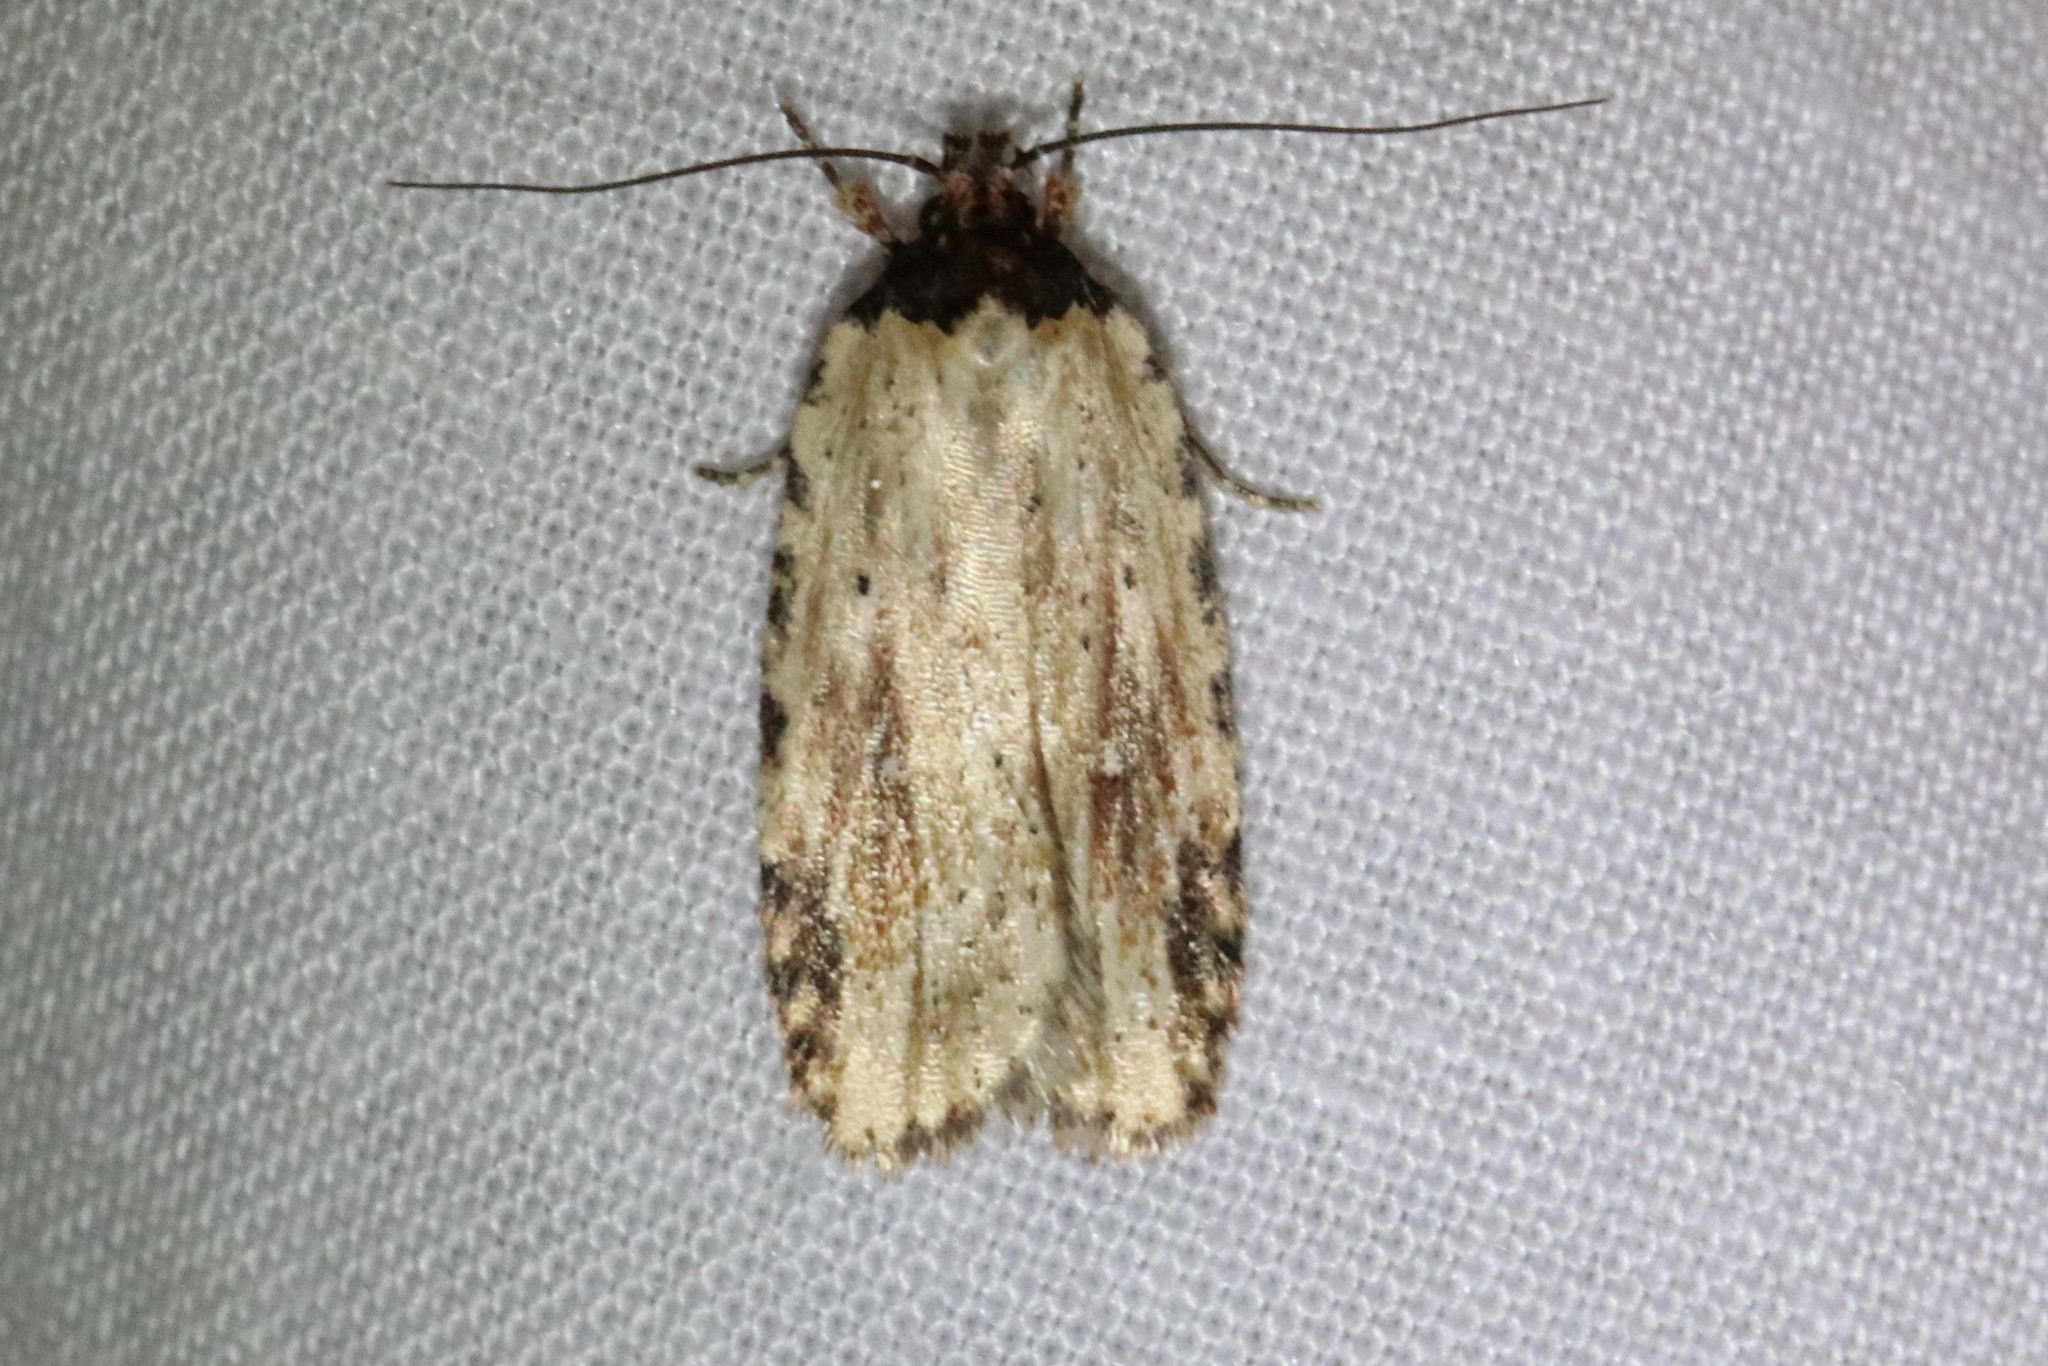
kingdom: Animalia
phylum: Arthropoda
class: Insecta
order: Lepidoptera
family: Depressariidae
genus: Agonopterix
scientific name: Agonopterix atrodorsella
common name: Beggartick leaffolder
